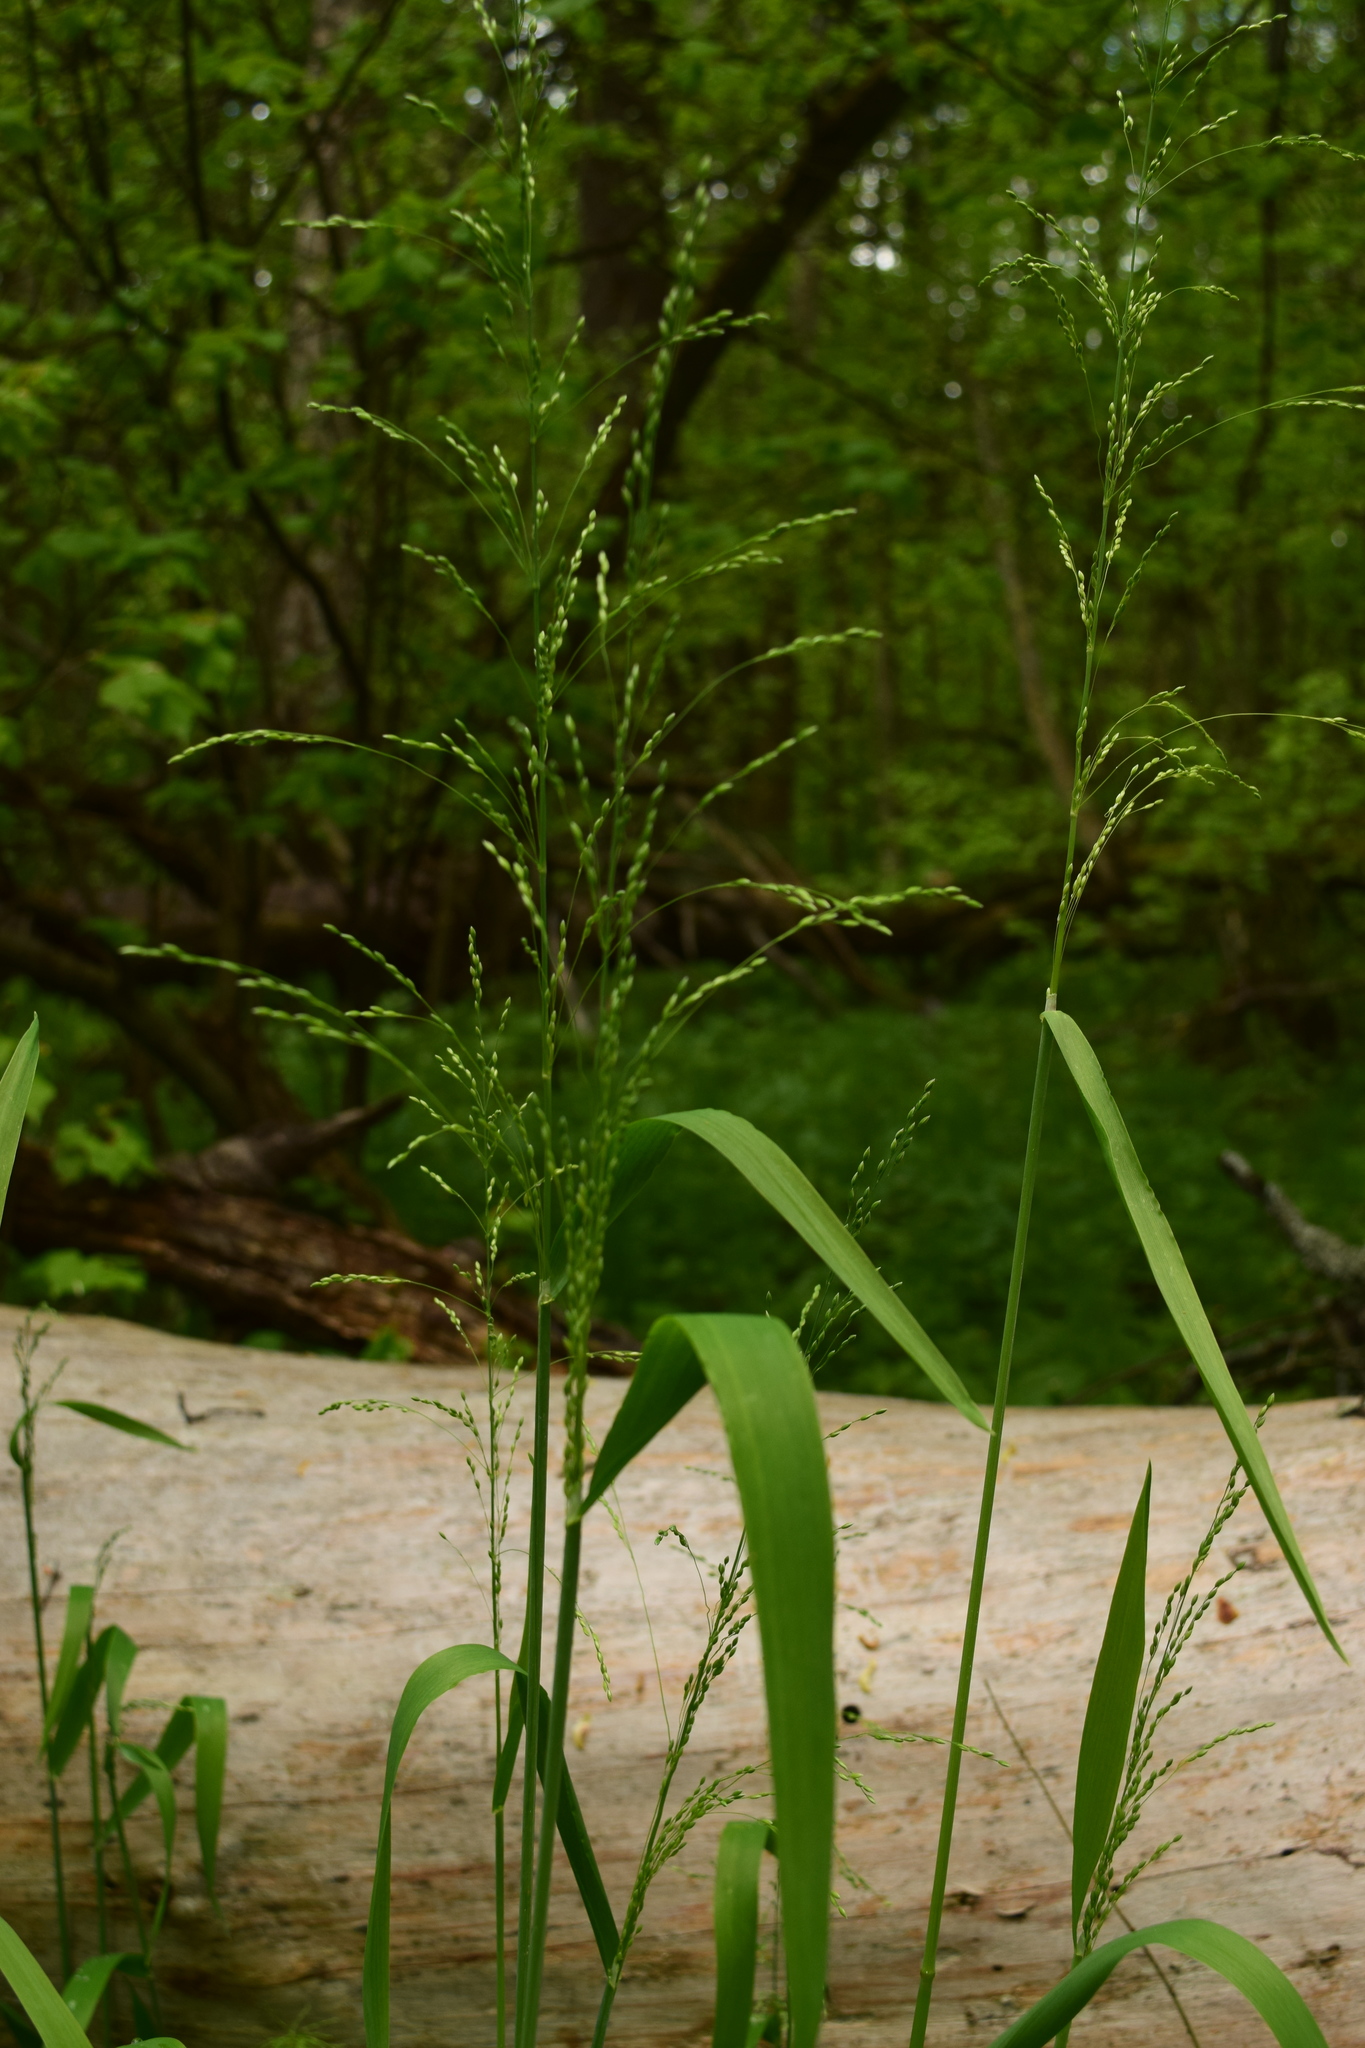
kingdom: Plantae
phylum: Tracheophyta
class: Liliopsida
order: Poales
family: Poaceae
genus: Milium
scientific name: Milium effusum
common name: Wood millet
